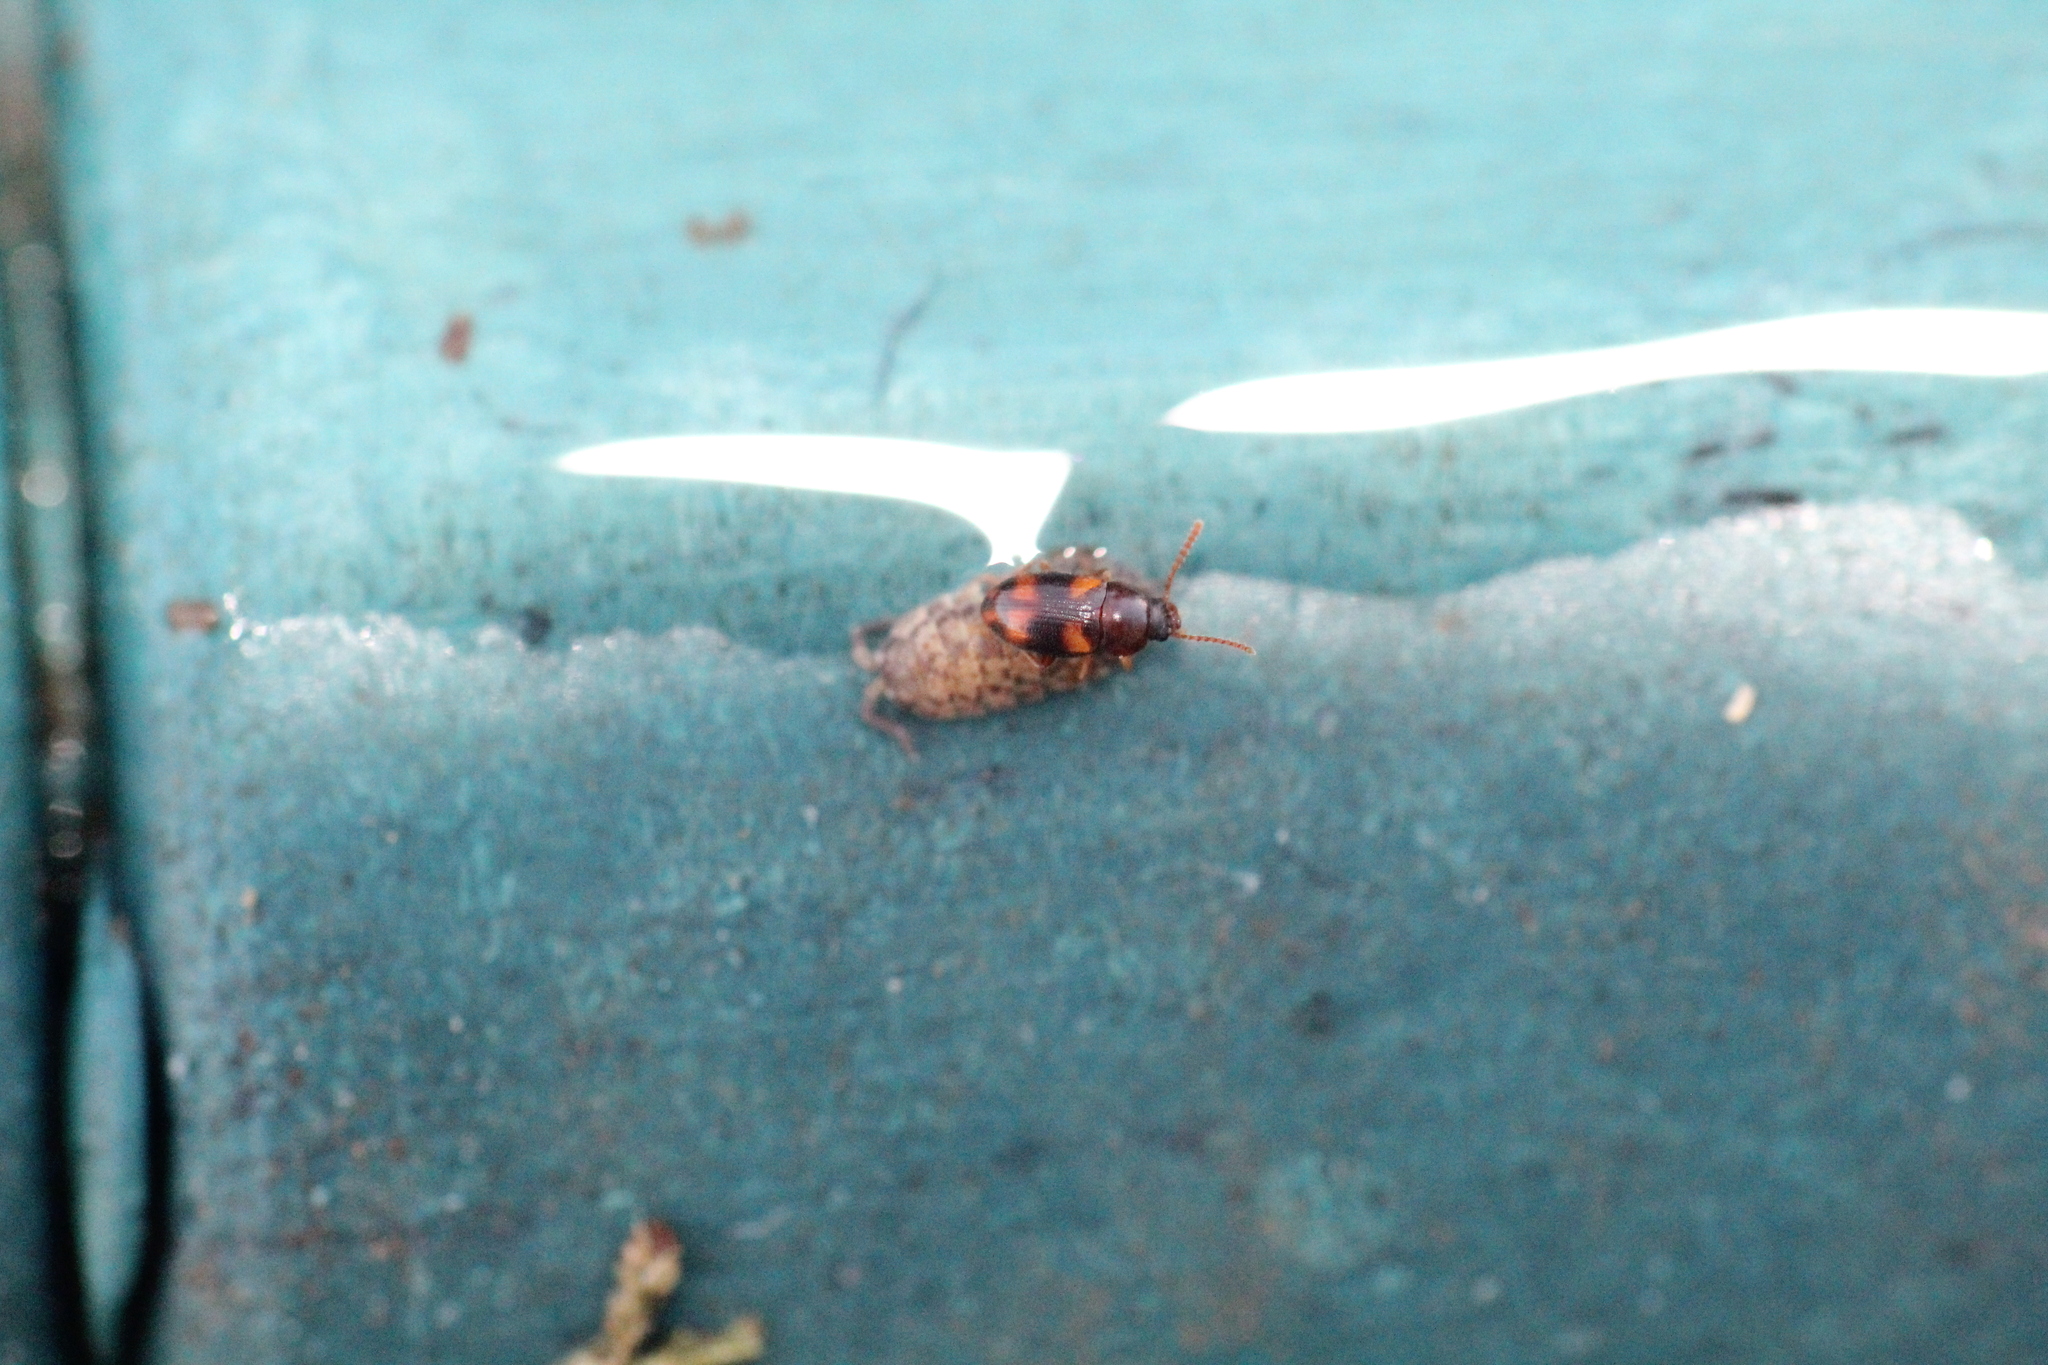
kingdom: Animalia
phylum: Arthropoda
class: Insecta
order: Coleoptera
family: Tenebrionidae
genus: Alphitophagus
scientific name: Alphitophagus bifasciatus
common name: Two-banded fungus beetle
